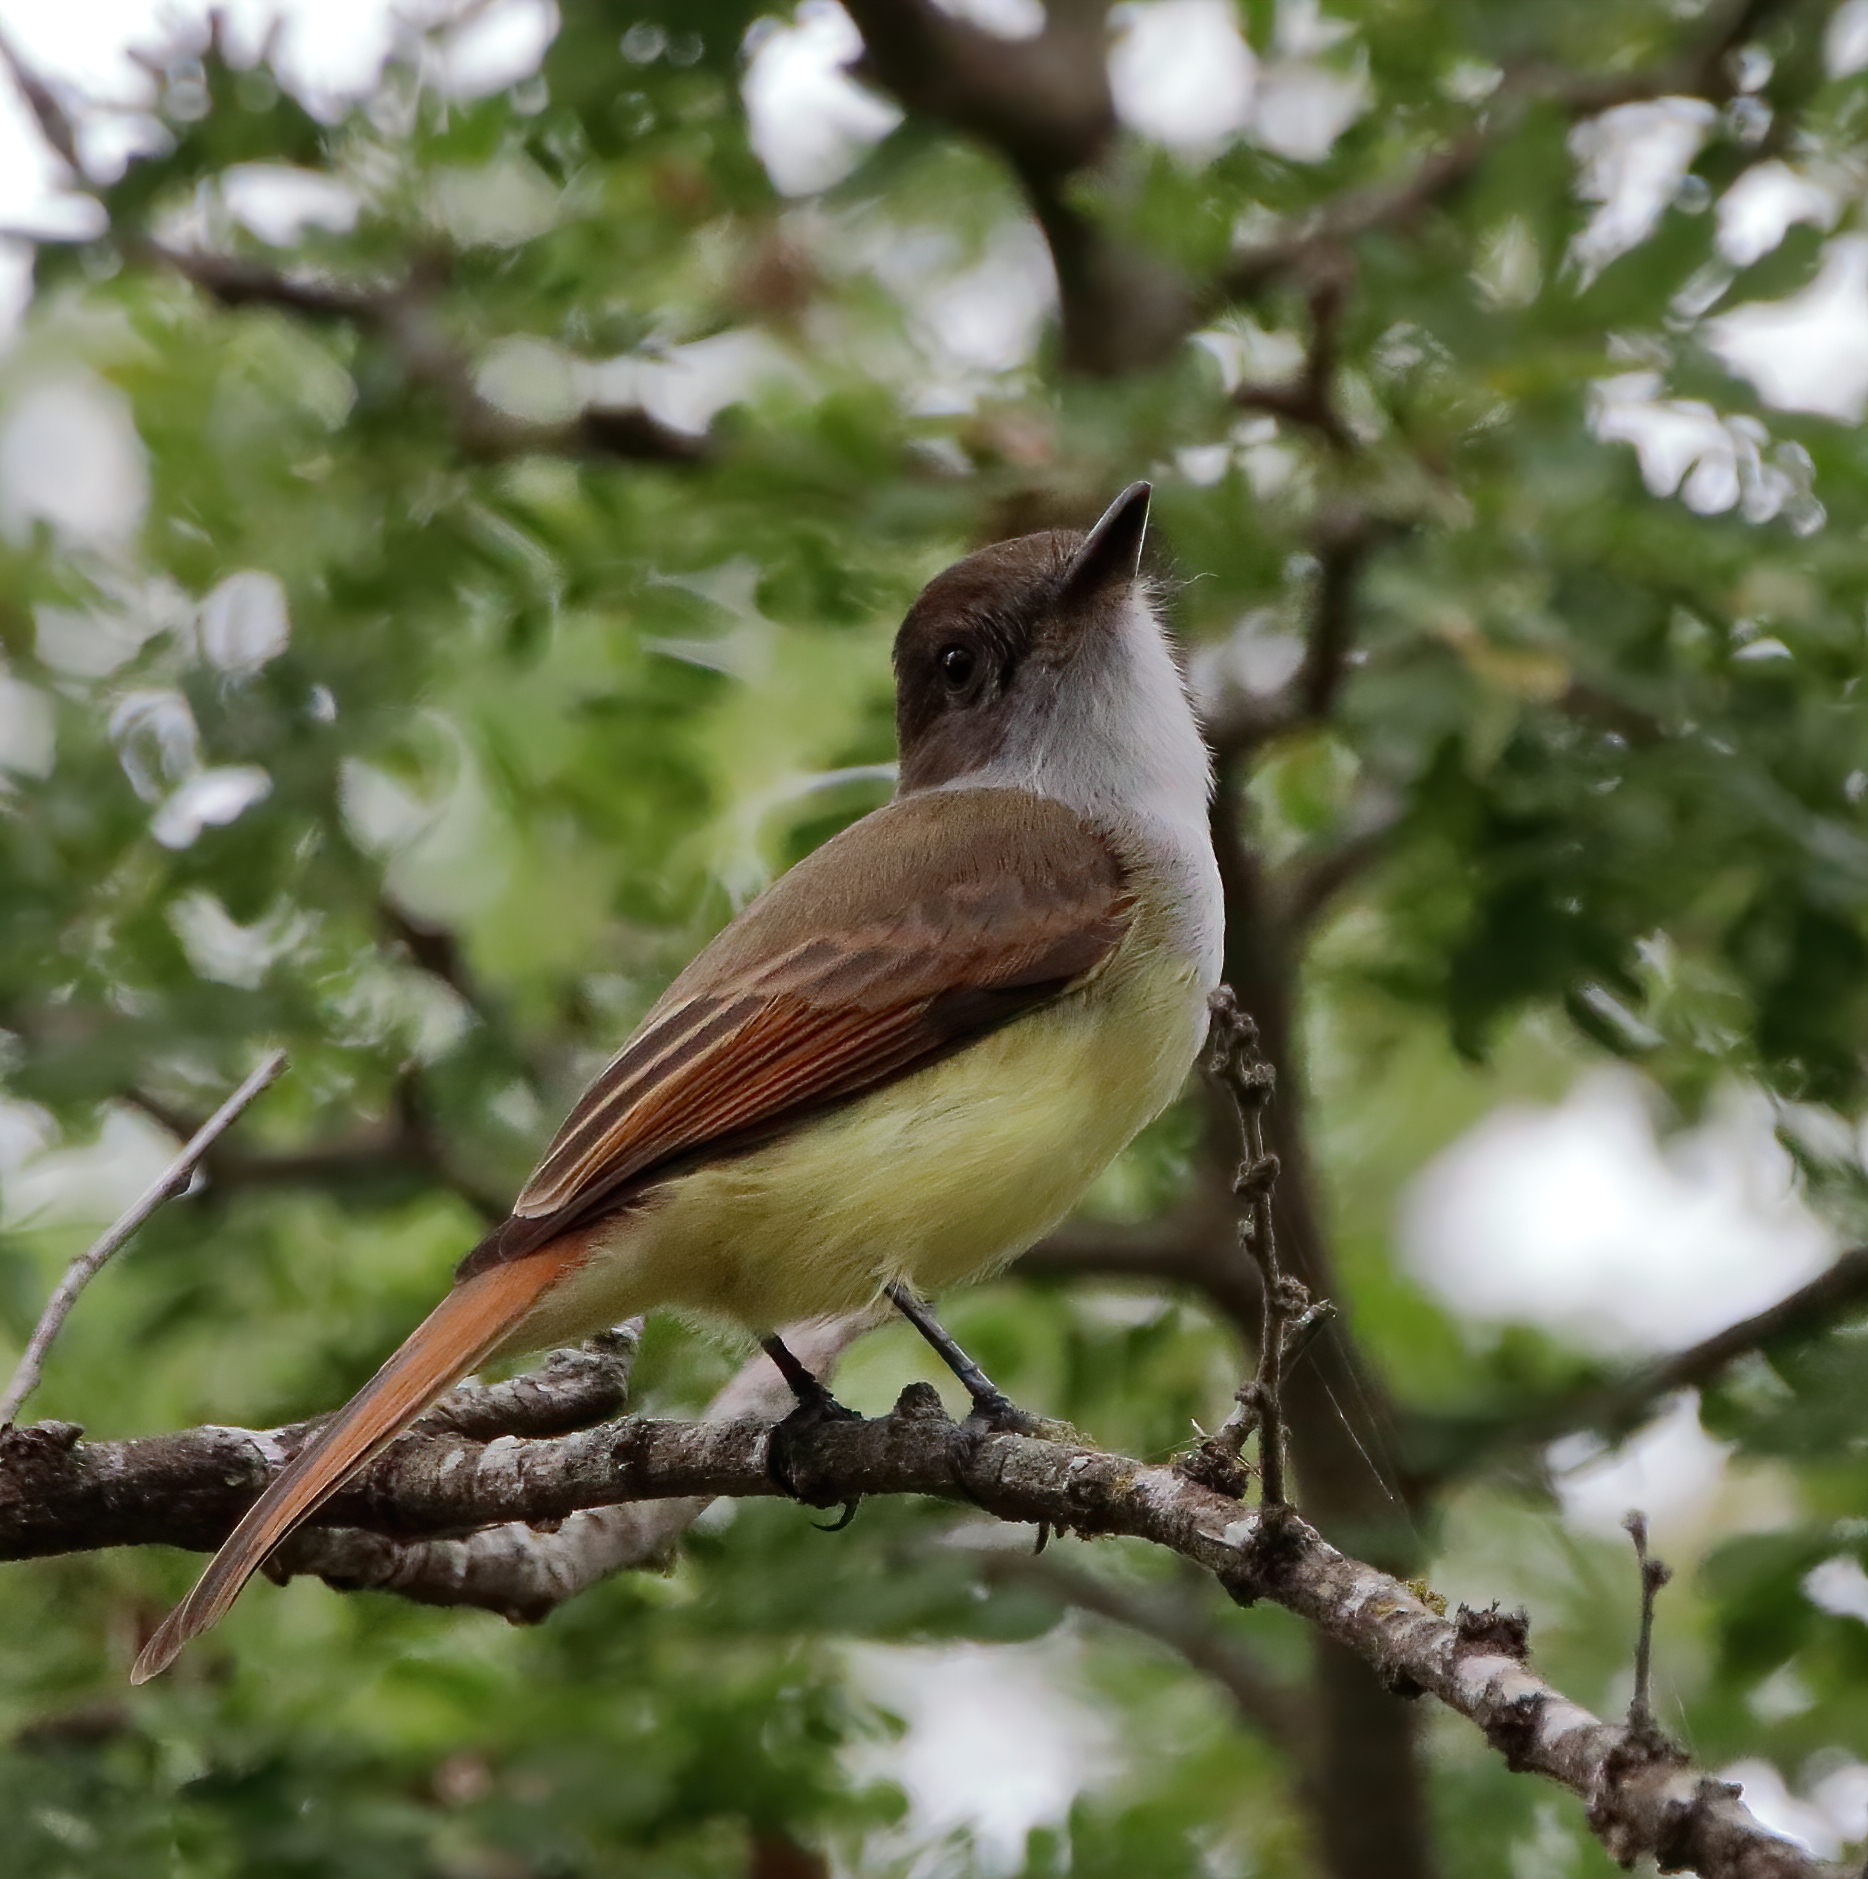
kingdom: Animalia
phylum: Chordata
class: Aves
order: Passeriformes
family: Tyrannidae
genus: Myiarchus
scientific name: Myiarchus tuberculifer
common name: Dusky-capped flycatcher
